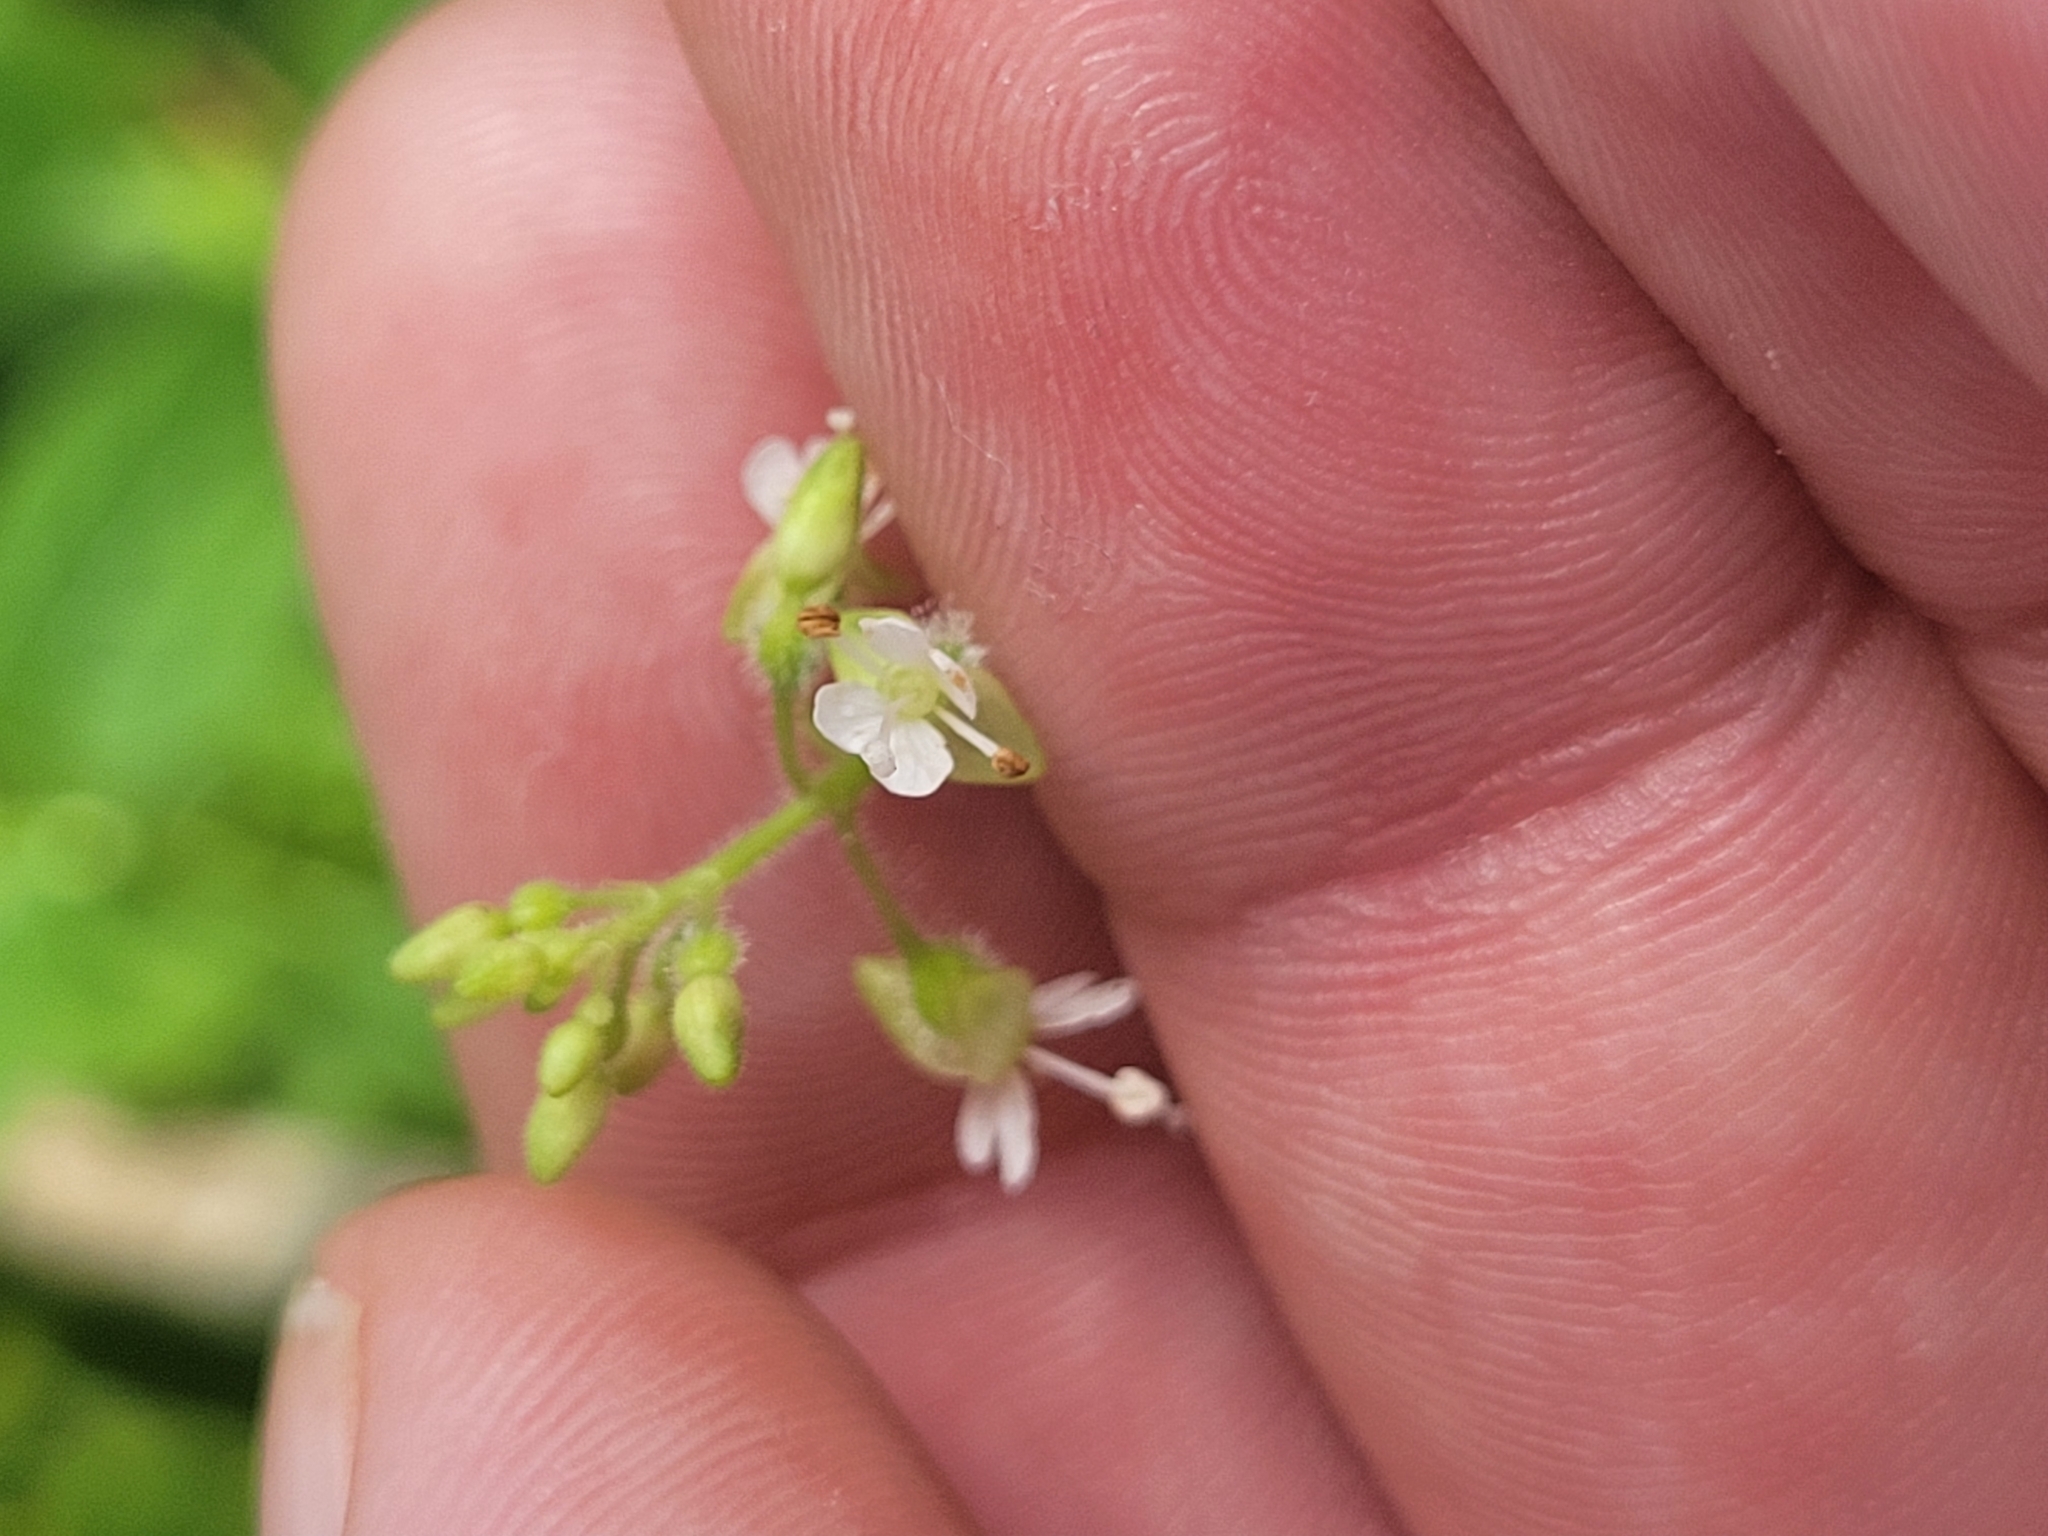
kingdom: Plantae
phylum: Tracheophyta
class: Magnoliopsida
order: Myrtales
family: Onagraceae
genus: Circaea
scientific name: Circaea canadensis
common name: Broad-leaved enchanter's nightshade
